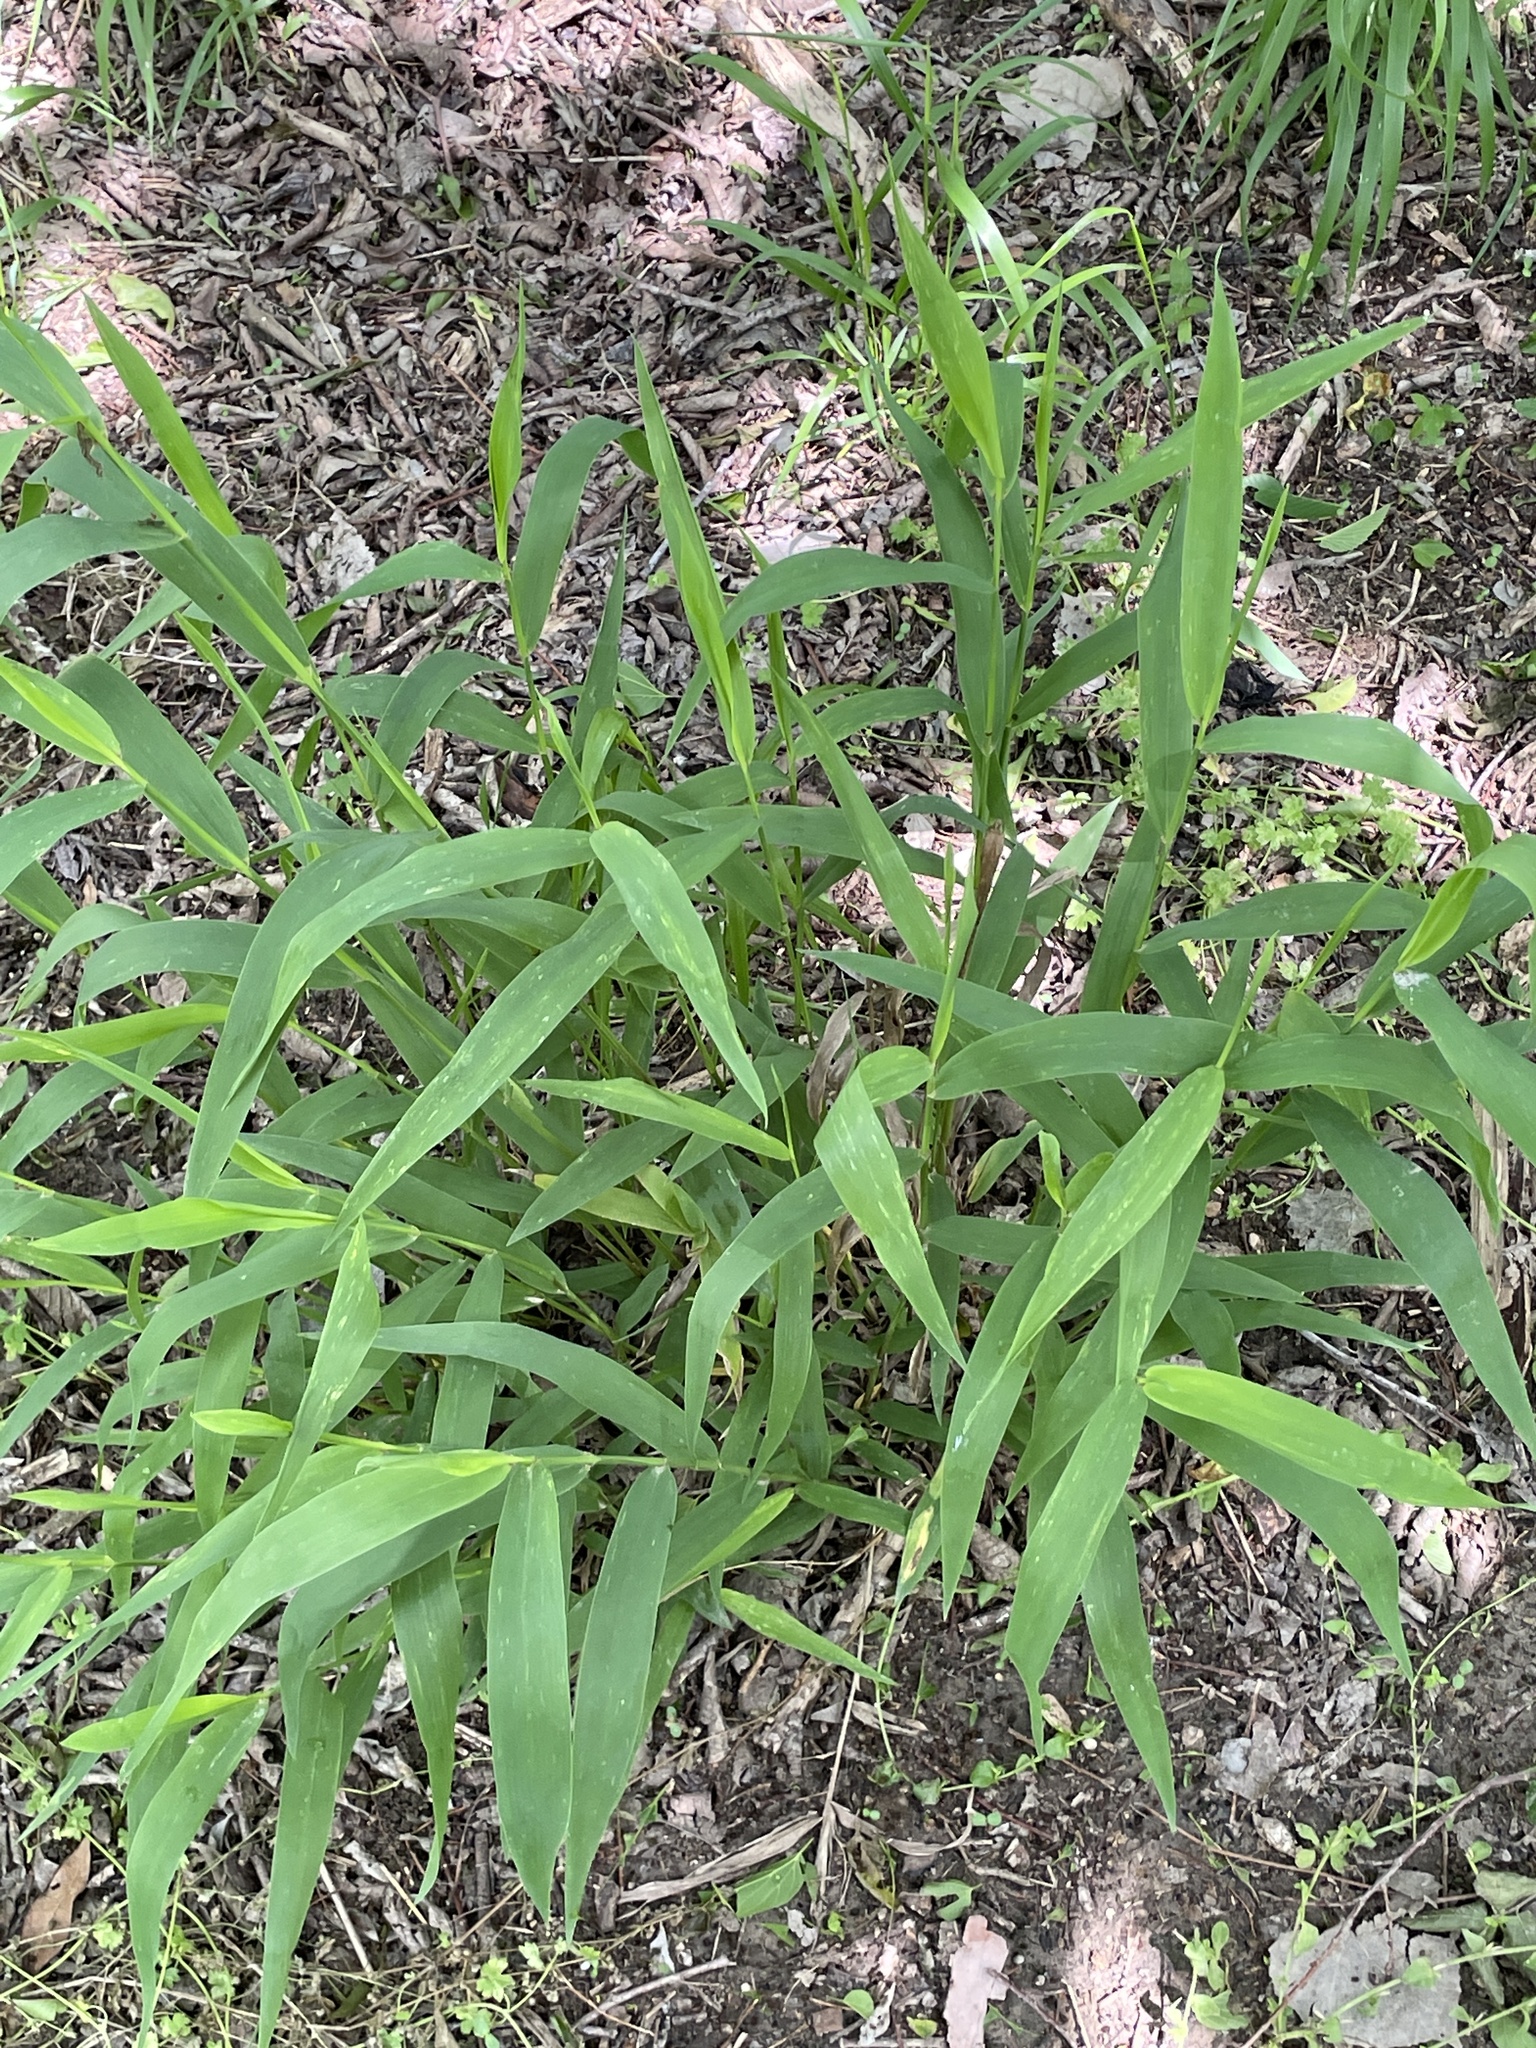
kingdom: Plantae
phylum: Tracheophyta
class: Liliopsida
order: Poales
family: Poaceae
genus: Chasmanthium
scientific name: Chasmanthium latifolium
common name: Broad-leaved chasmanthium
